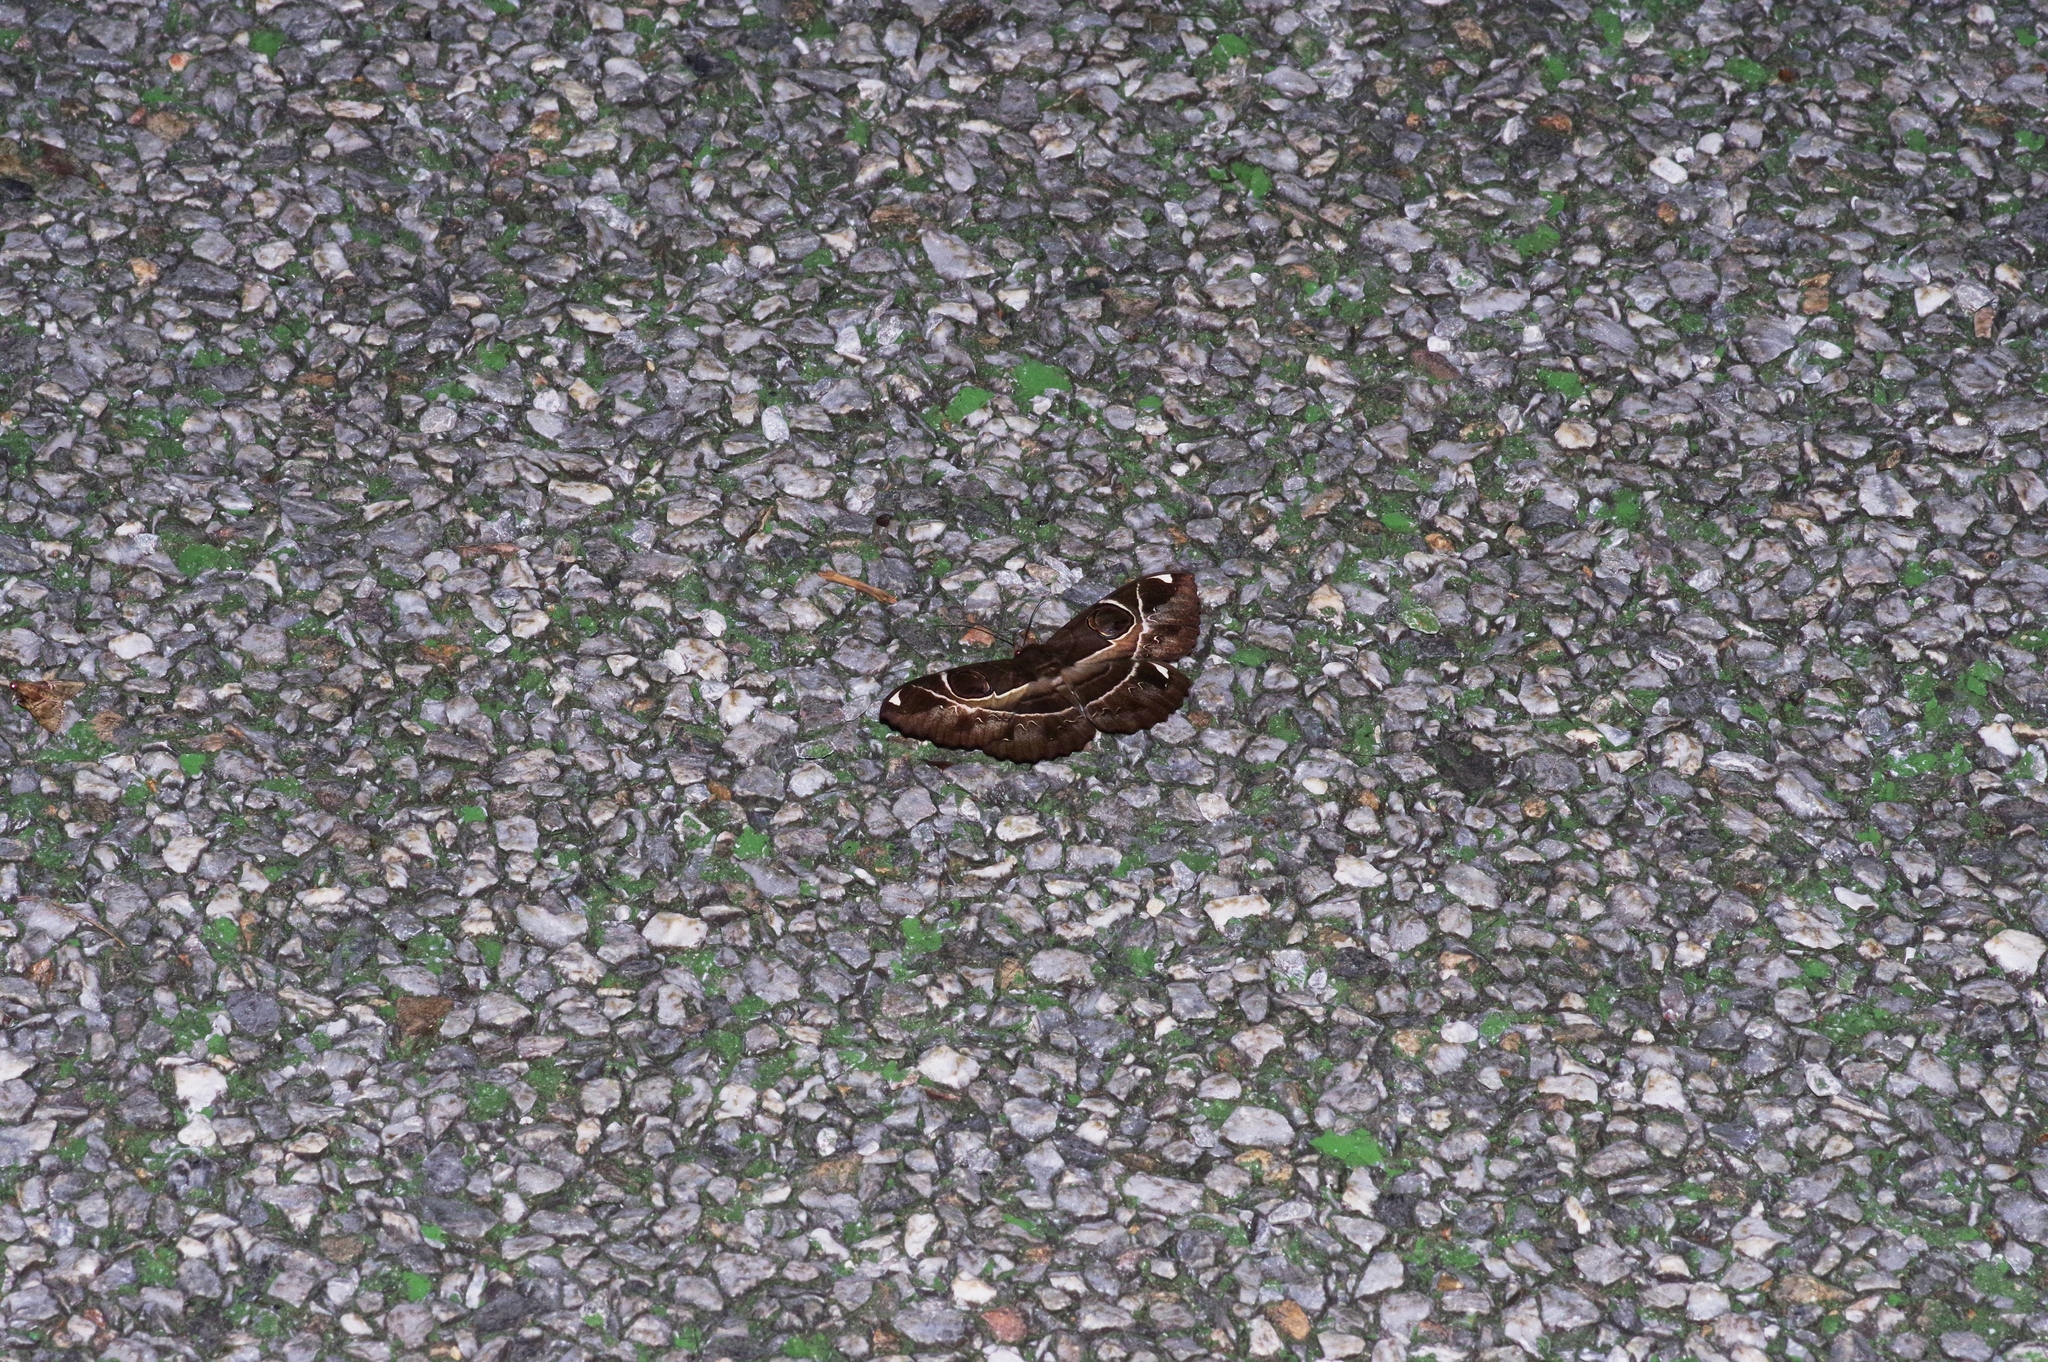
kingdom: Animalia
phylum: Arthropoda
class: Insecta
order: Lepidoptera
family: Erebidae
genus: Erebus
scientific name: Erebus ephesperis
